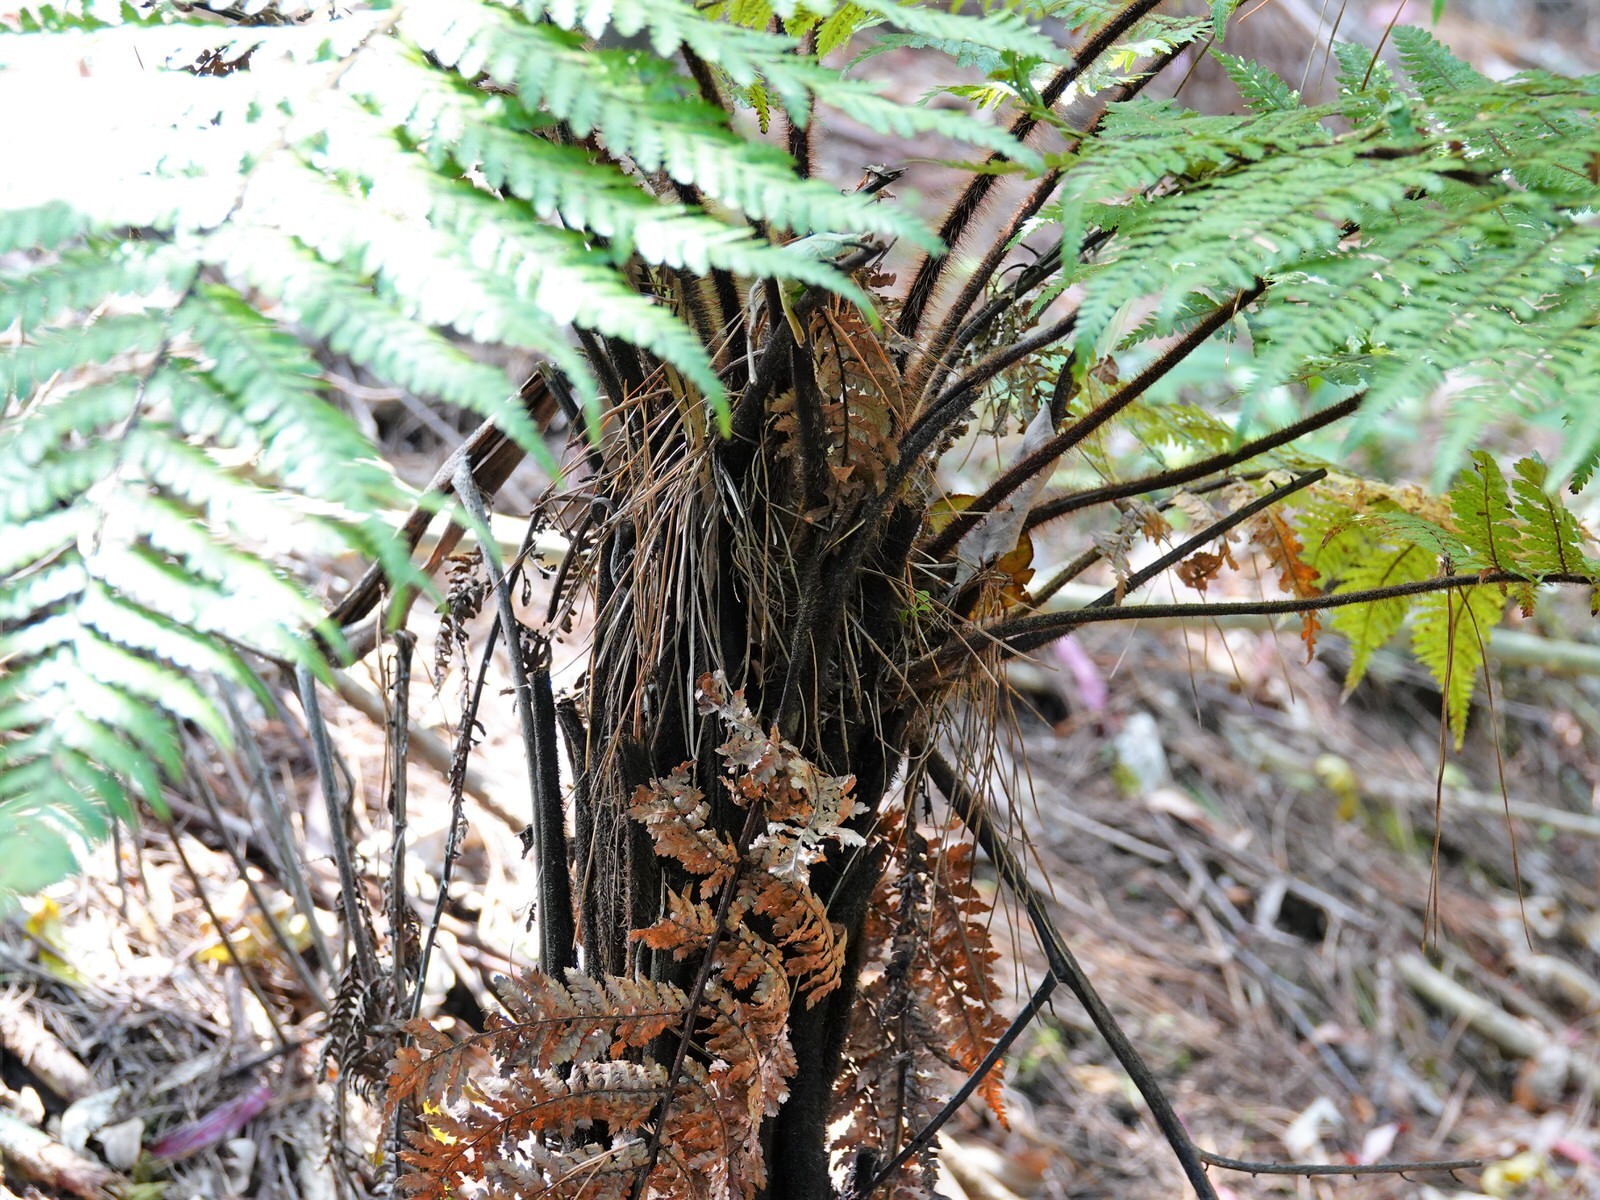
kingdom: Plantae
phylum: Tracheophyta
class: Polypodiopsida
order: Cyatheales
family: Dicksoniaceae
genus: Dicksonia
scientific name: Dicksonia squarrosa
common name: Hard treefern
